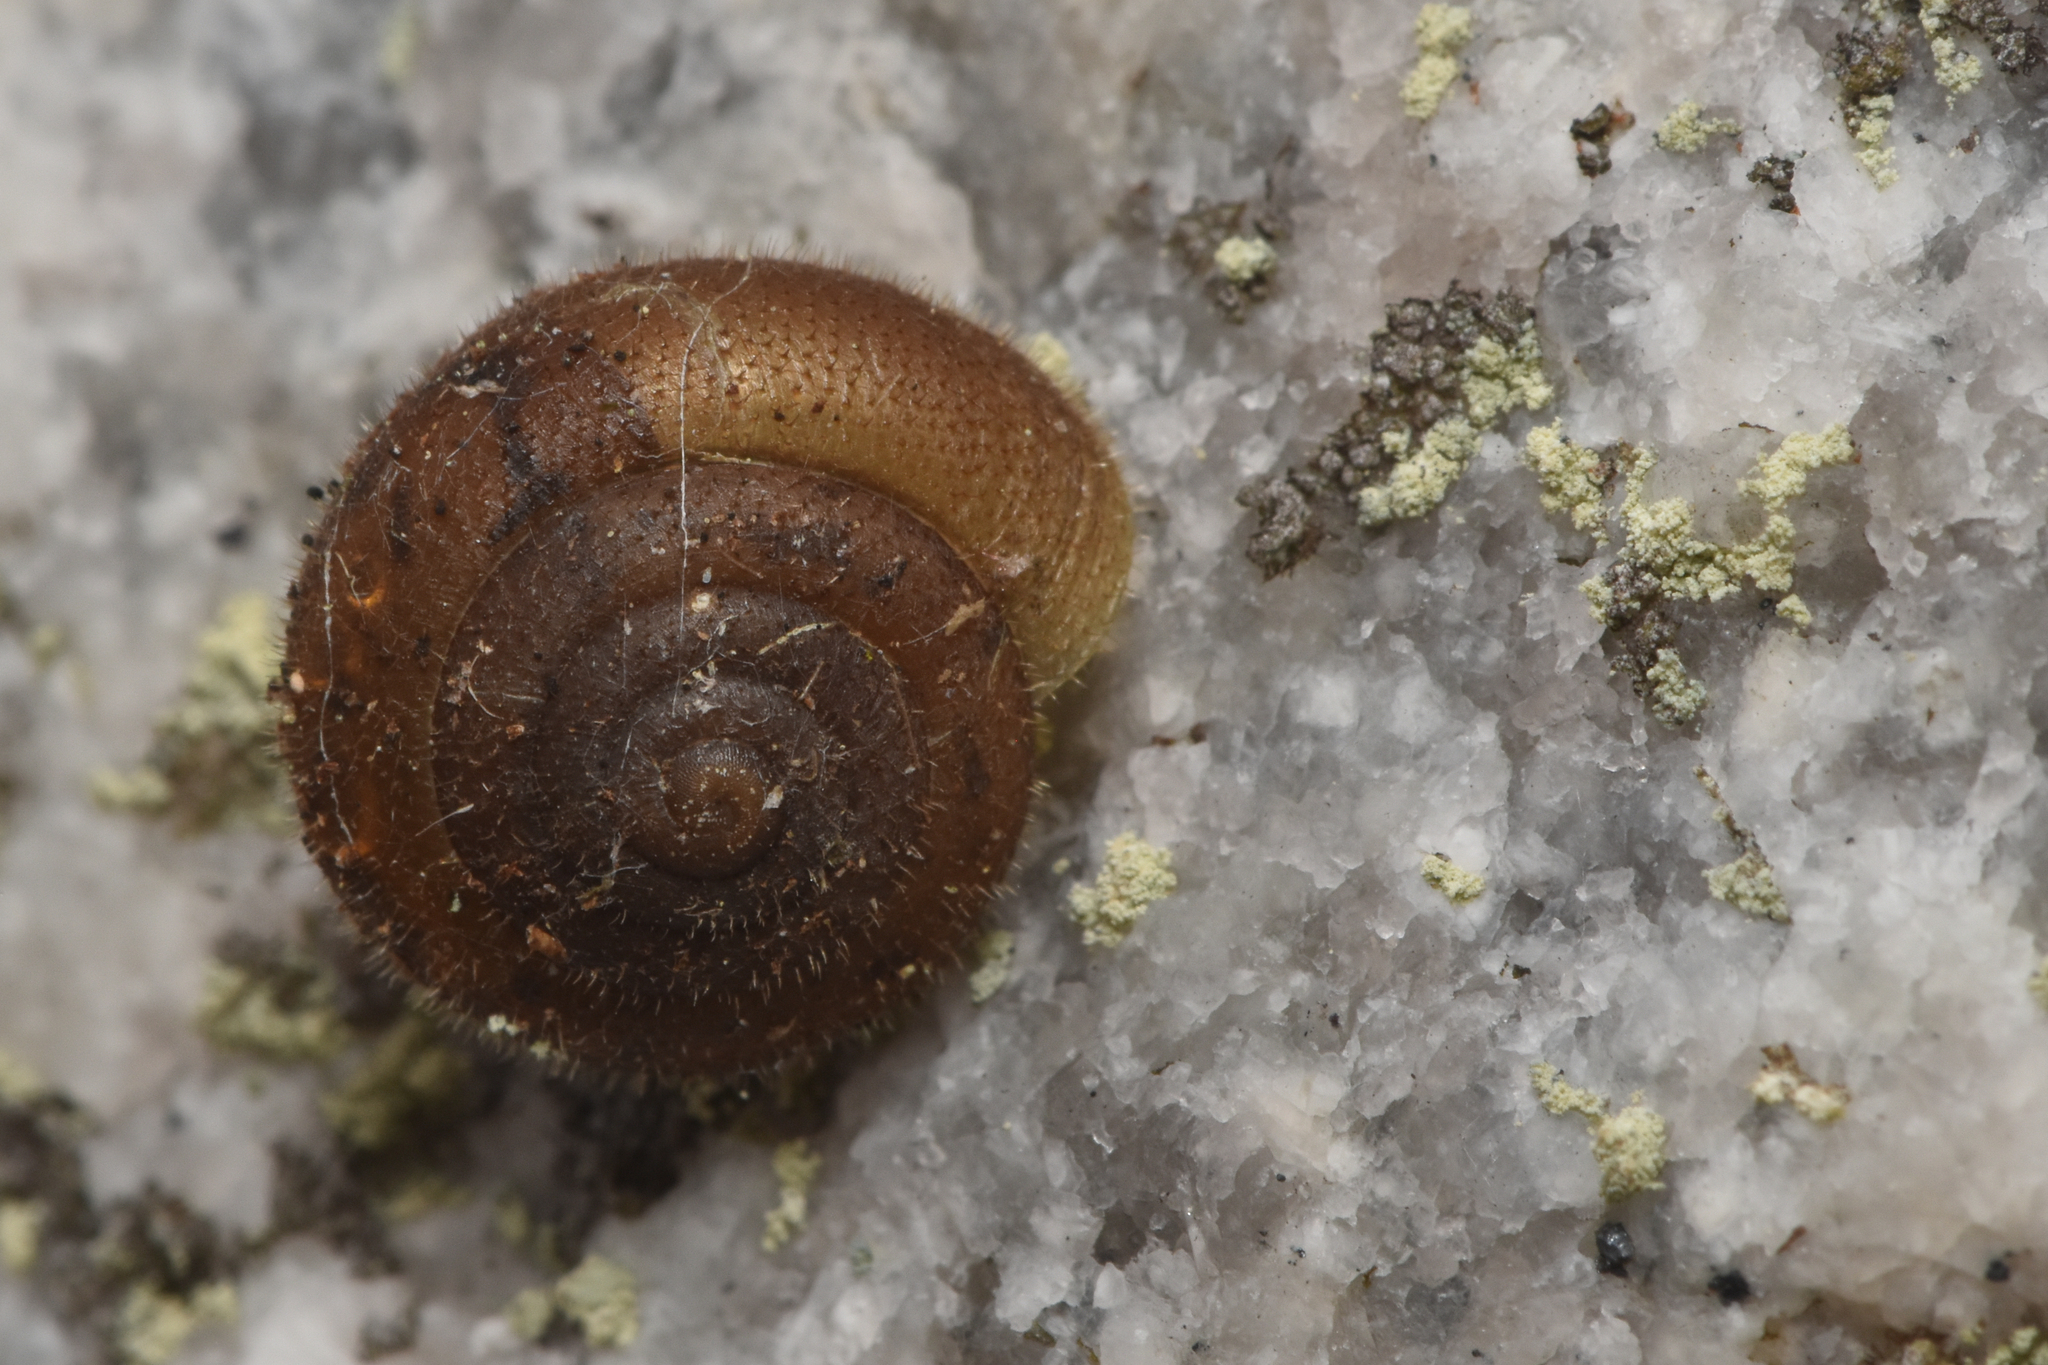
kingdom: Animalia
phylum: Mollusca
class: Gastropoda
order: Stylommatophora
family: Polygyridae
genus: Vespericola
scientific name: Vespericola columbianus
